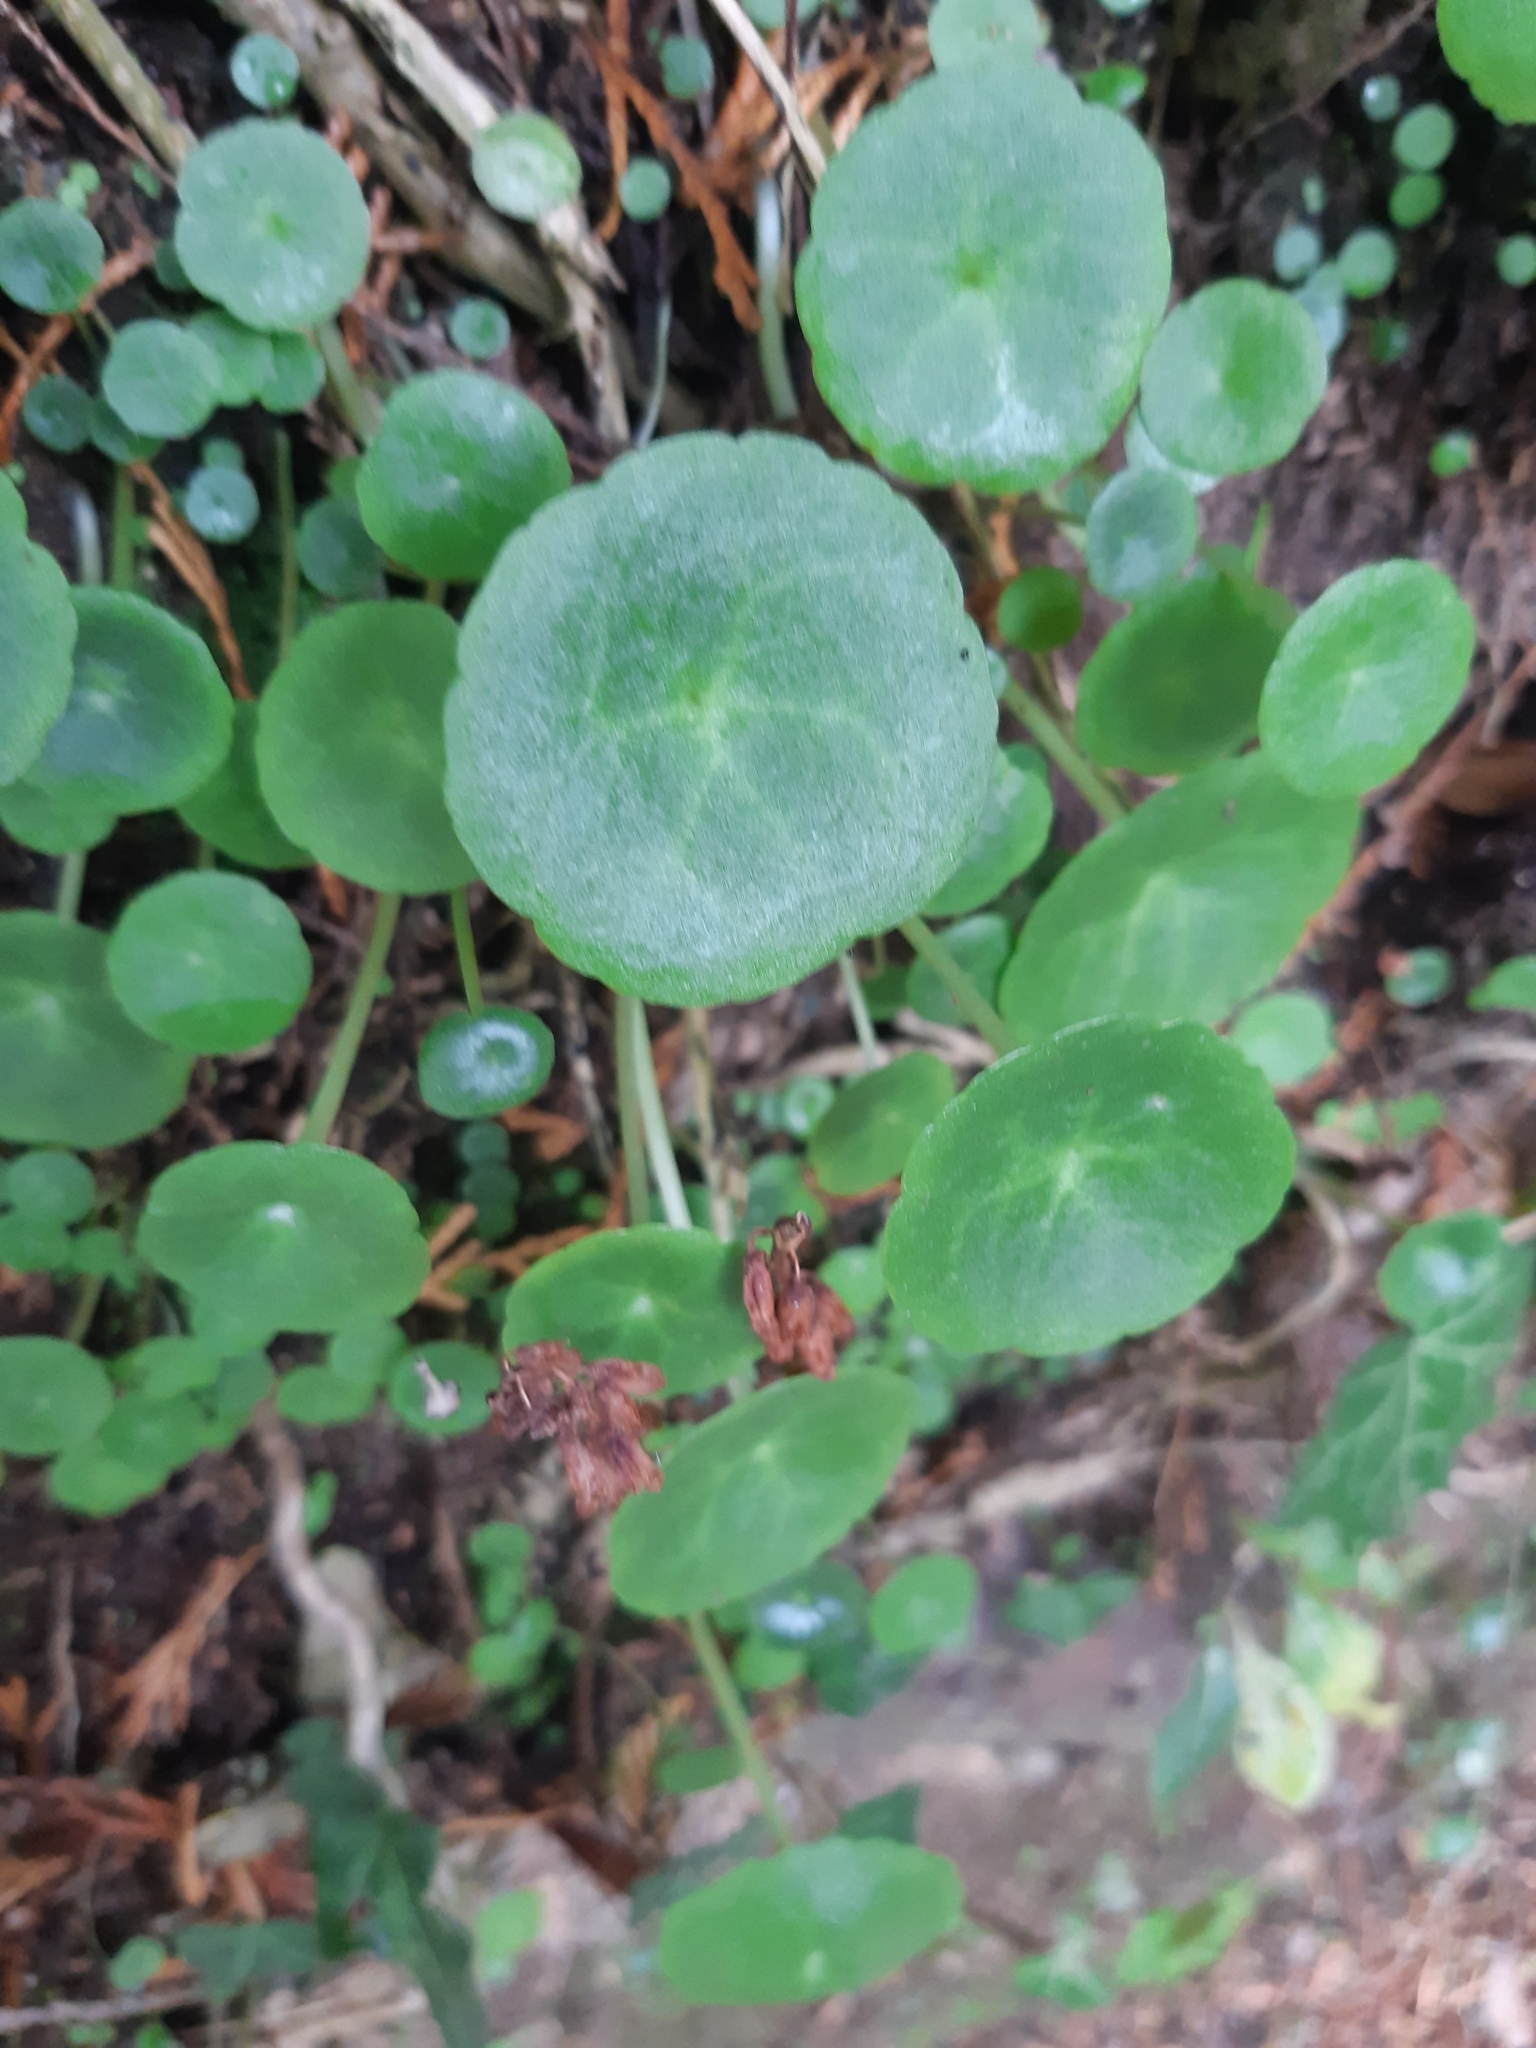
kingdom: Plantae
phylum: Tracheophyta
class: Magnoliopsida
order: Saxifragales
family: Crassulaceae
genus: Umbilicus
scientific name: Umbilicus rupestris
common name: Navelwort
